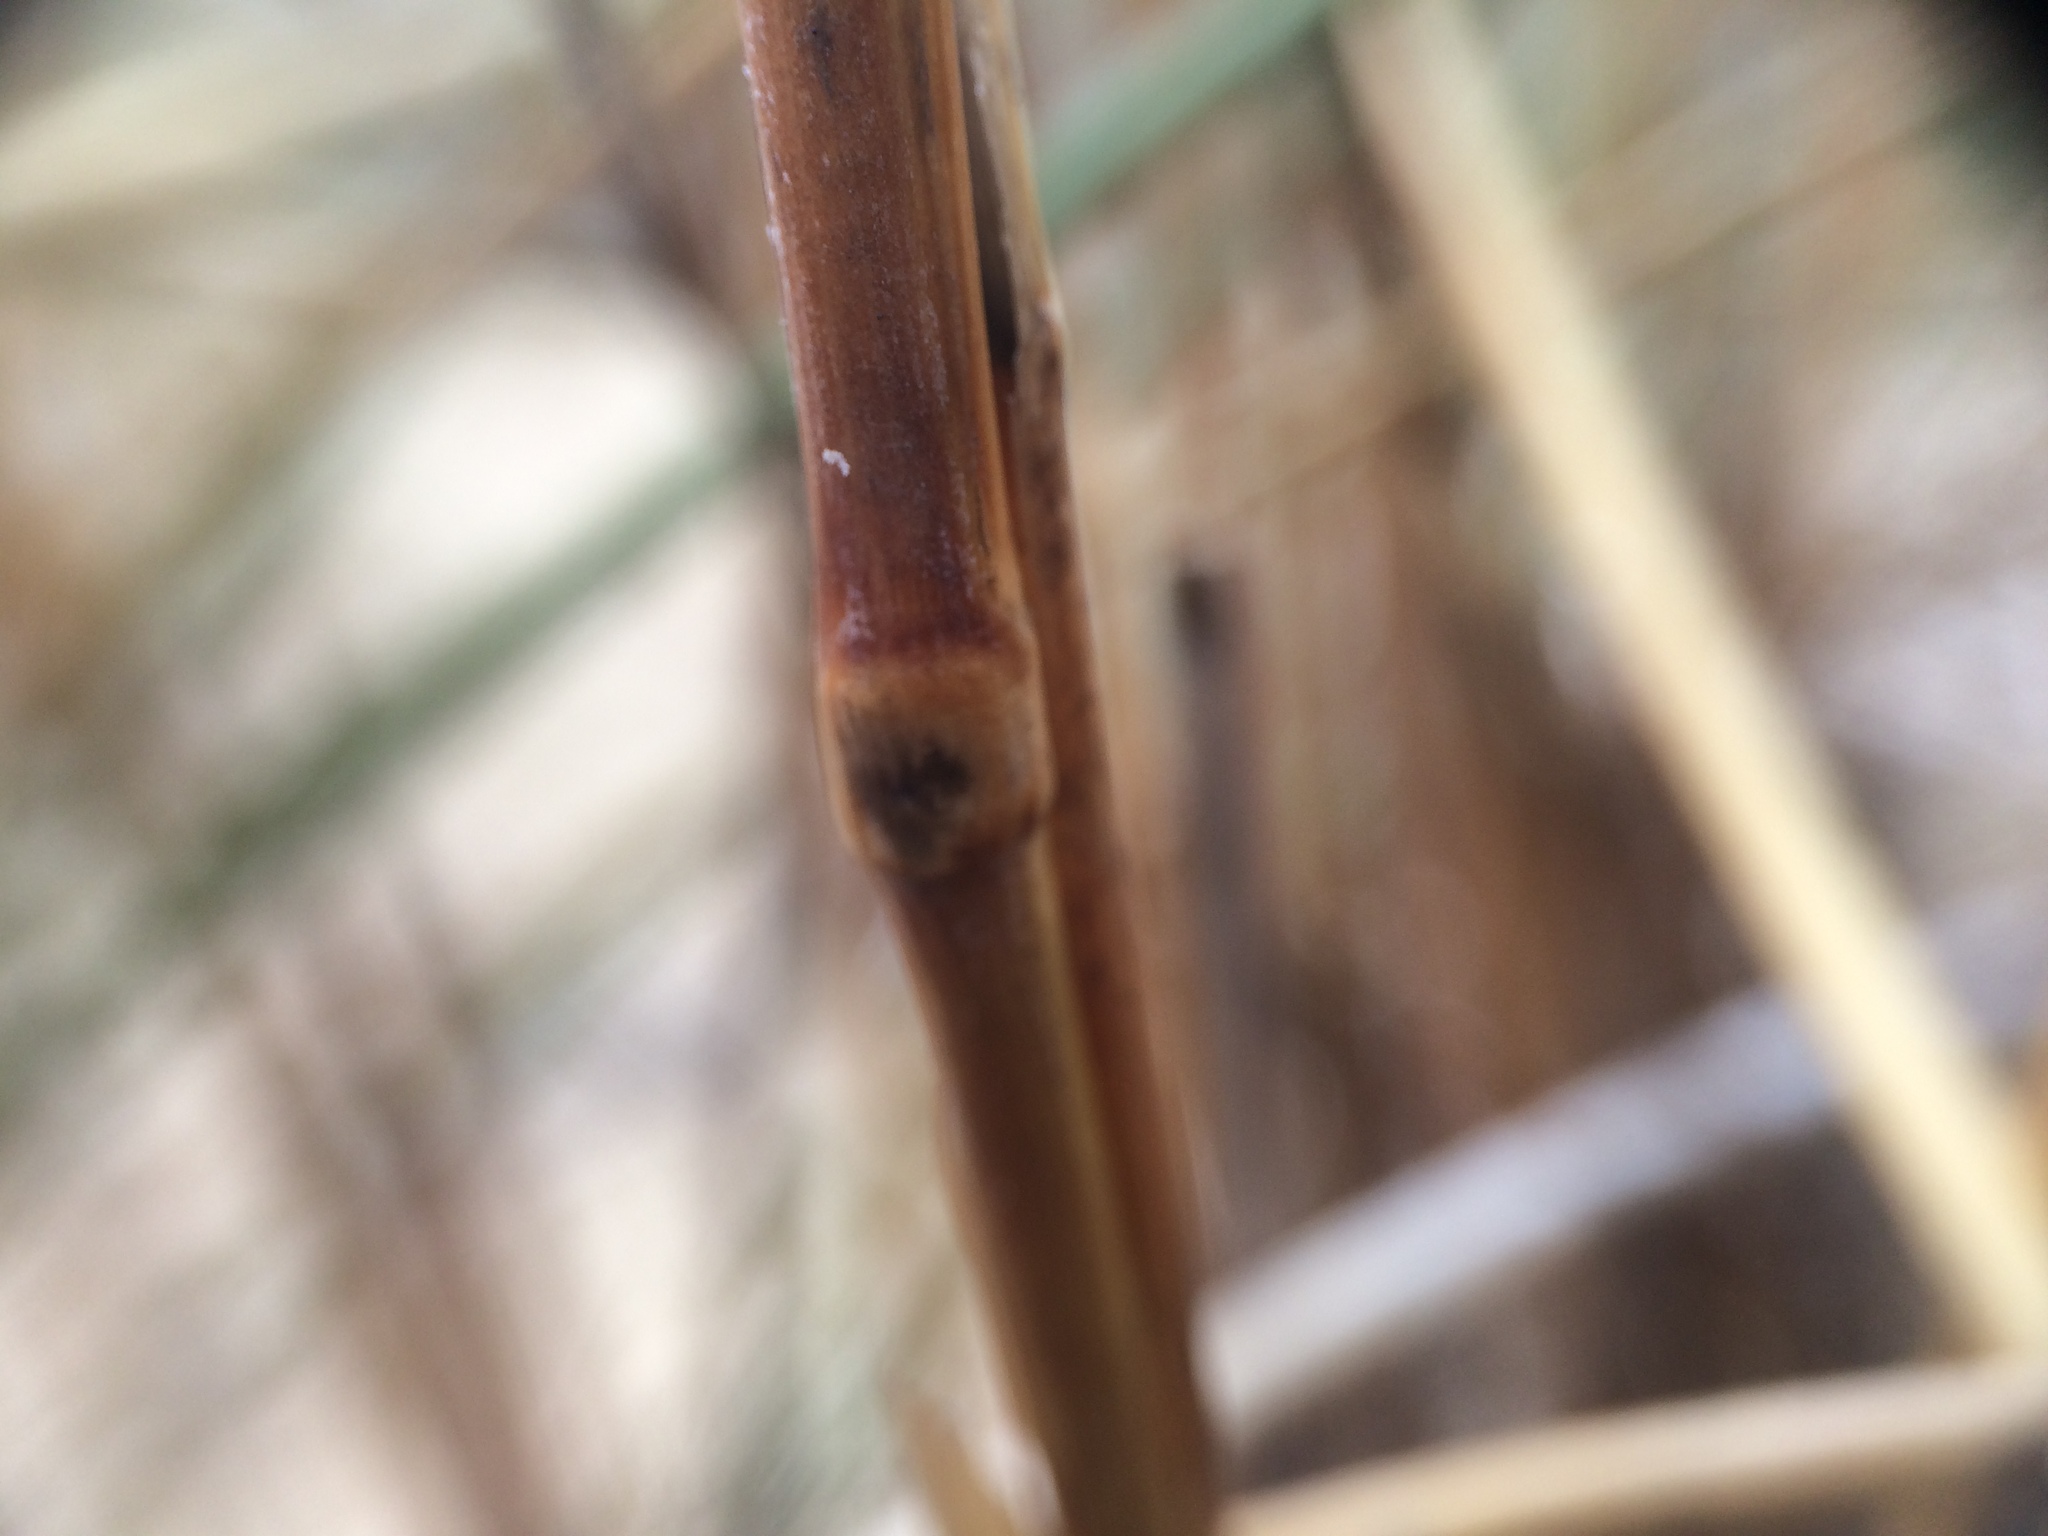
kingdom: Plantae
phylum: Tracheophyta
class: Liliopsida
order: Poales
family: Poaceae
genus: Calamagrostis
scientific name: Calamagrostis arenaria
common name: European beachgrass
